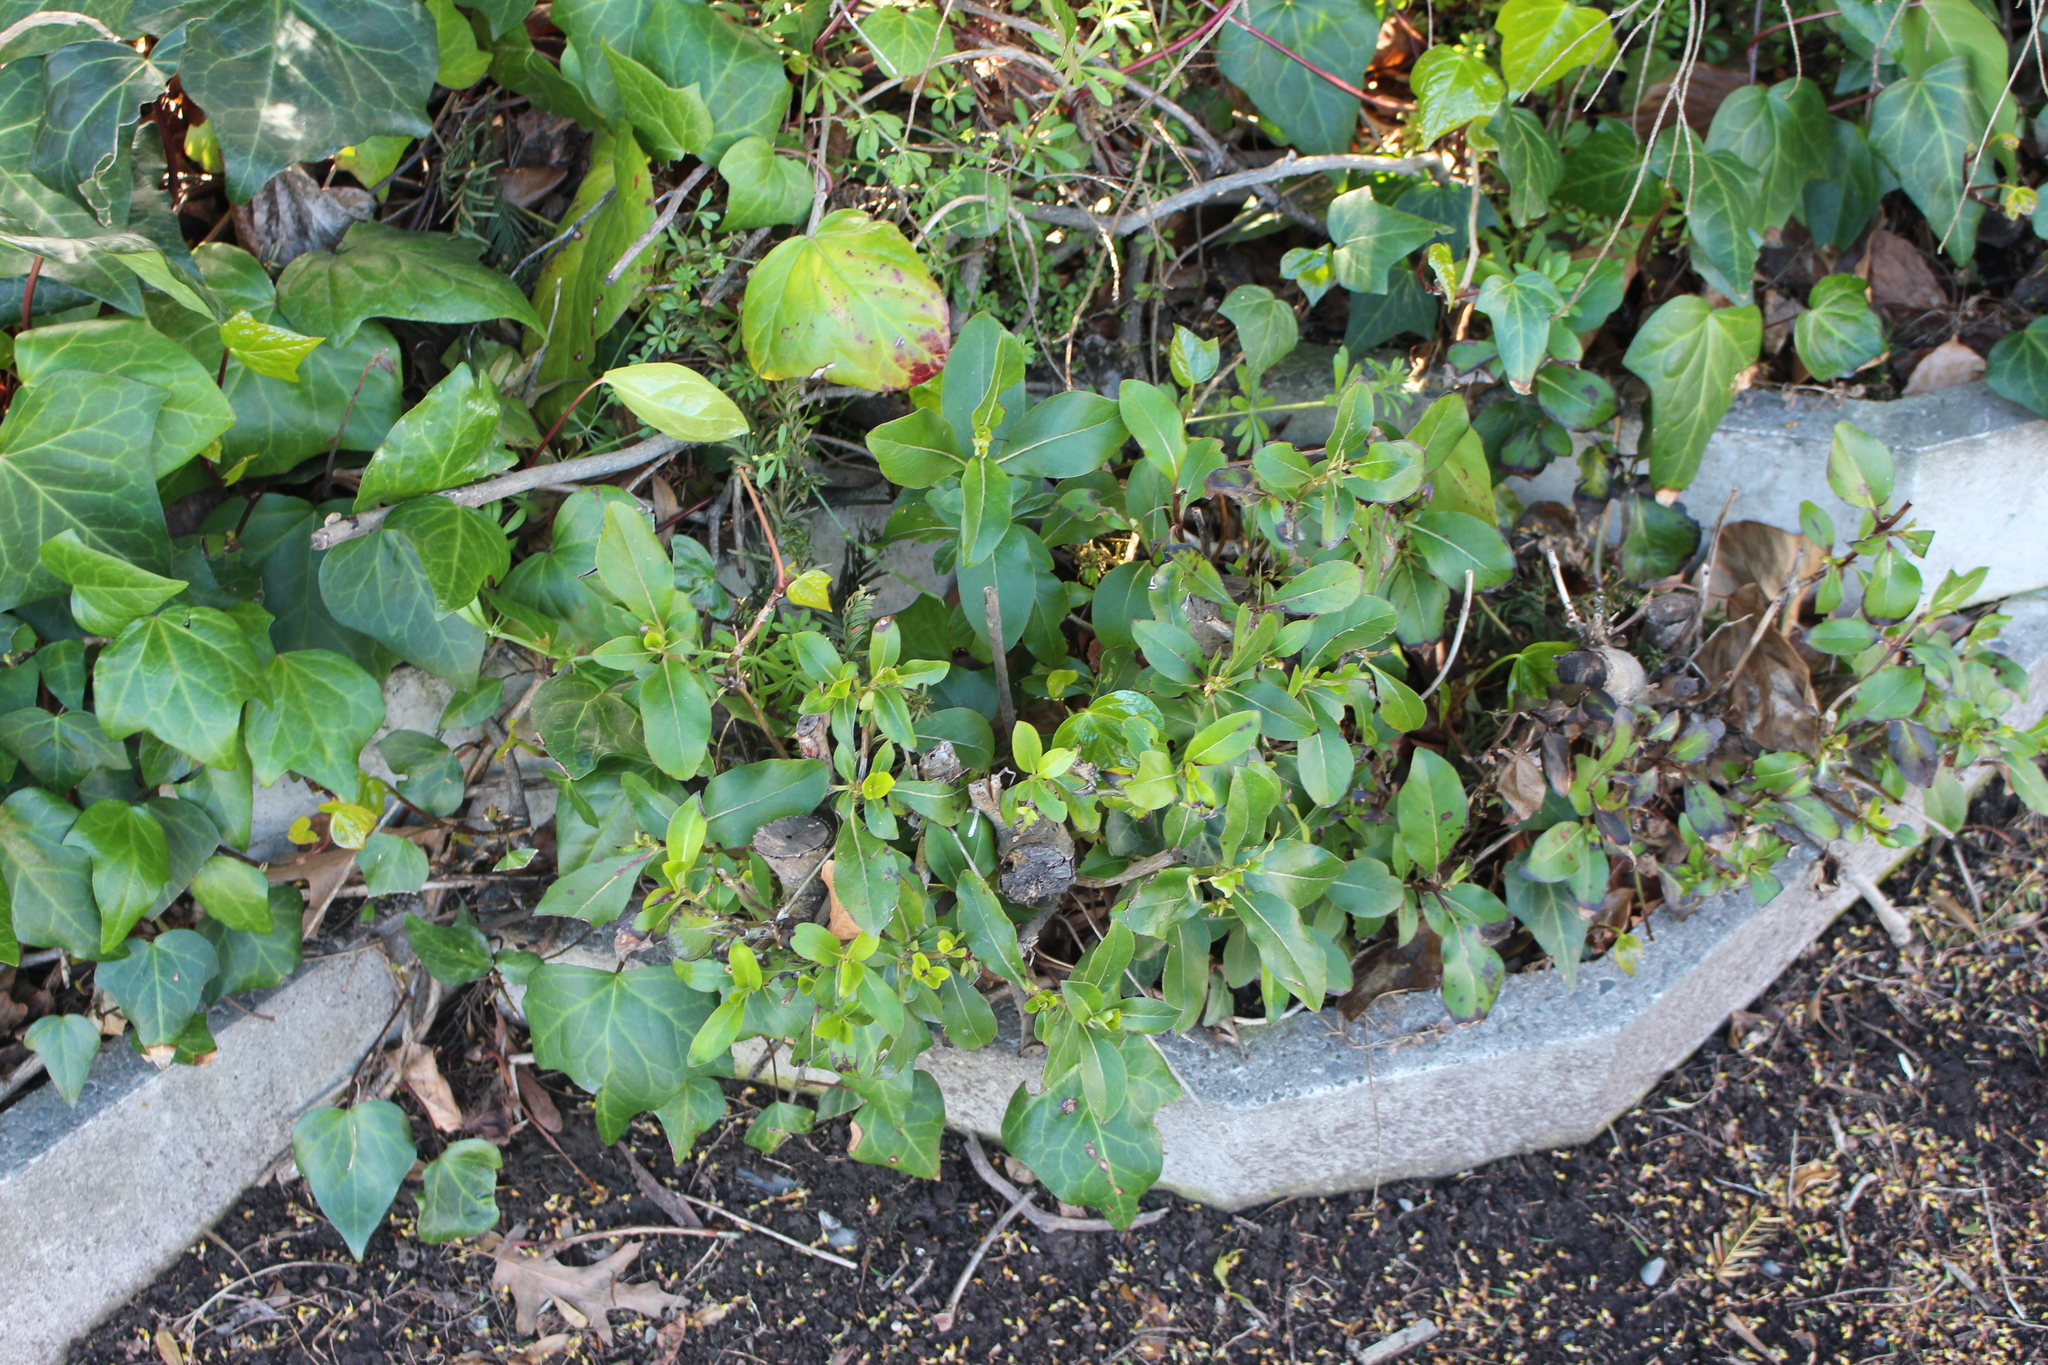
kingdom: Plantae
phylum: Tracheophyta
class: Magnoliopsida
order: Gentianales
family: Rubiaceae
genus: Coprosma
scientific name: Coprosma robusta
